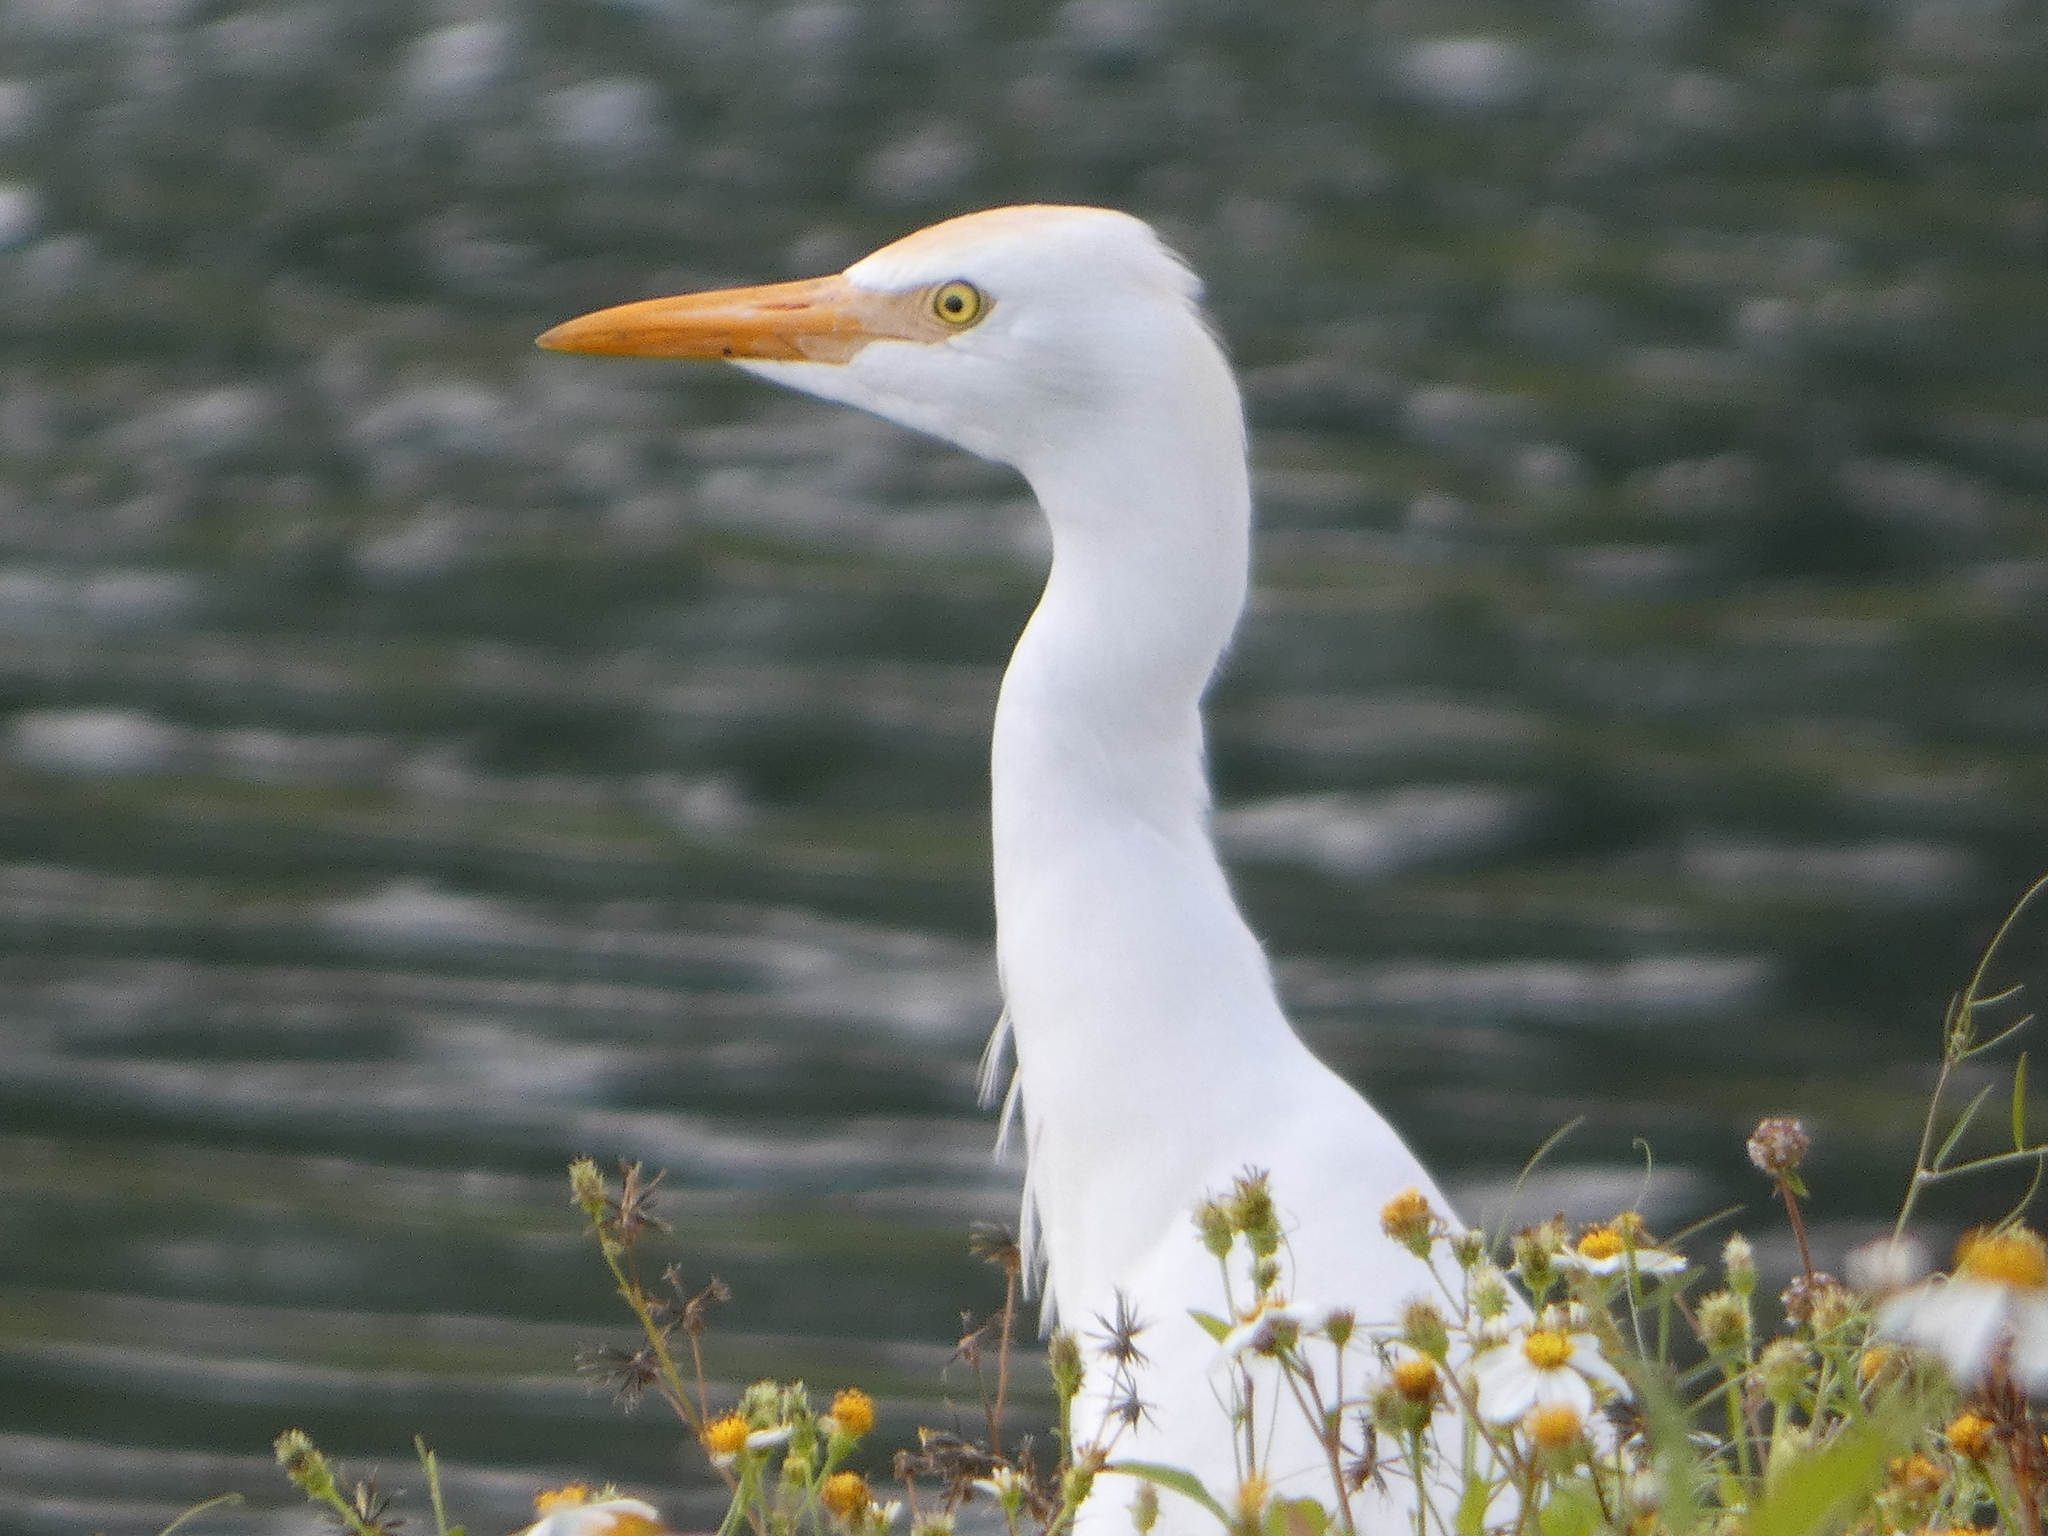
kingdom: Animalia
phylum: Chordata
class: Aves
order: Pelecaniformes
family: Ardeidae
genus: Bubulcus
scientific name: Bubulcus ibis
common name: Cattle egret
